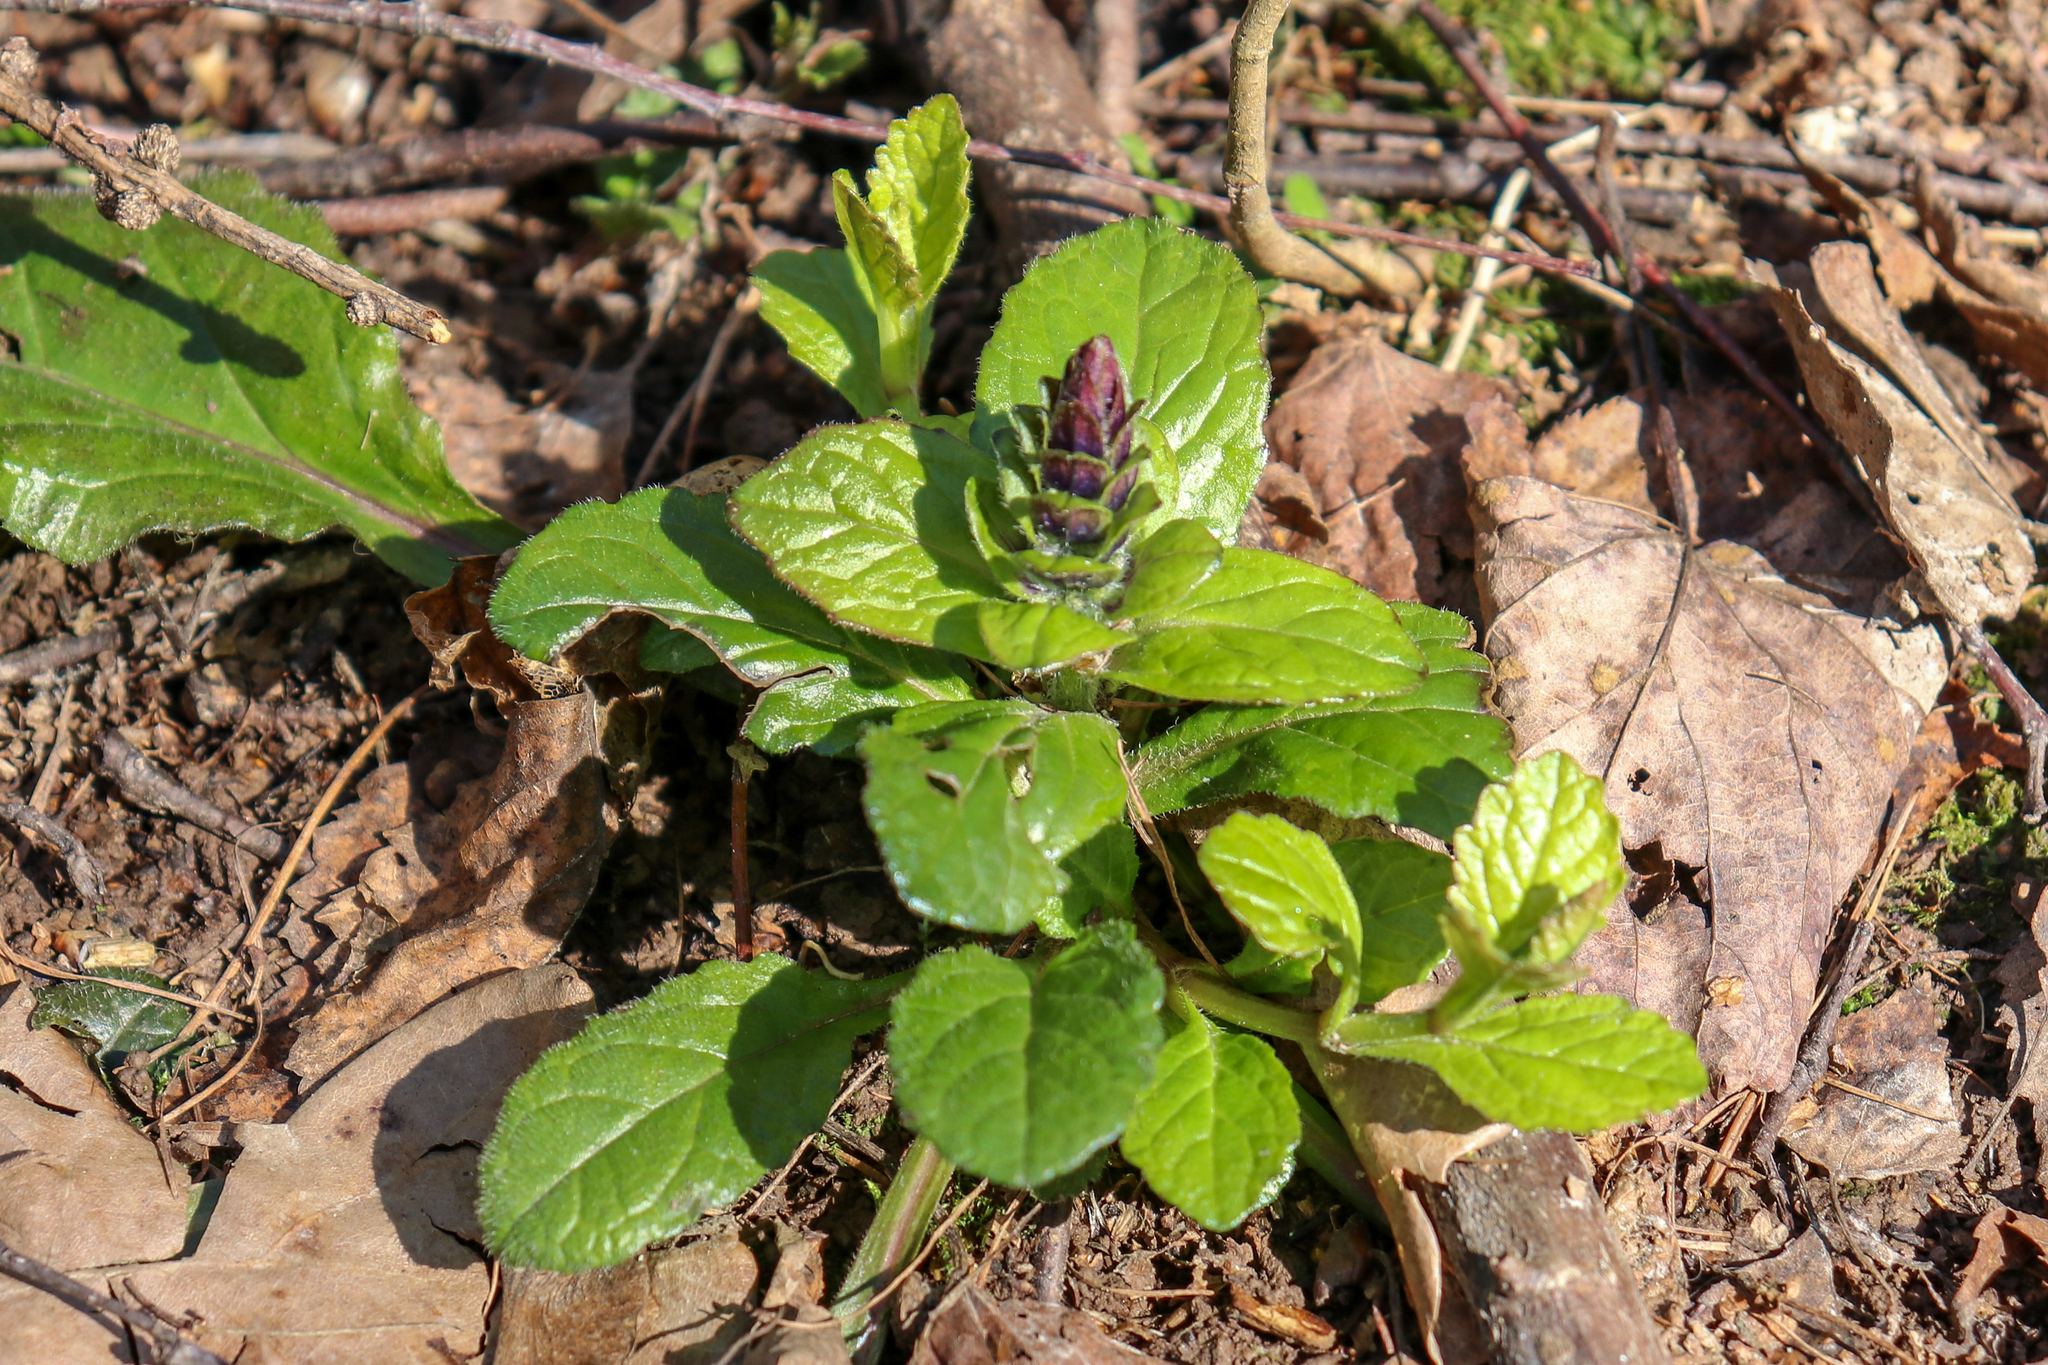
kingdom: Plantae
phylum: Tracheophyta
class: Magnoliopsida
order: Lamiales
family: Lamiaceae
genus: Ajuga
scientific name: Ajuga reptans
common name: Bugle
